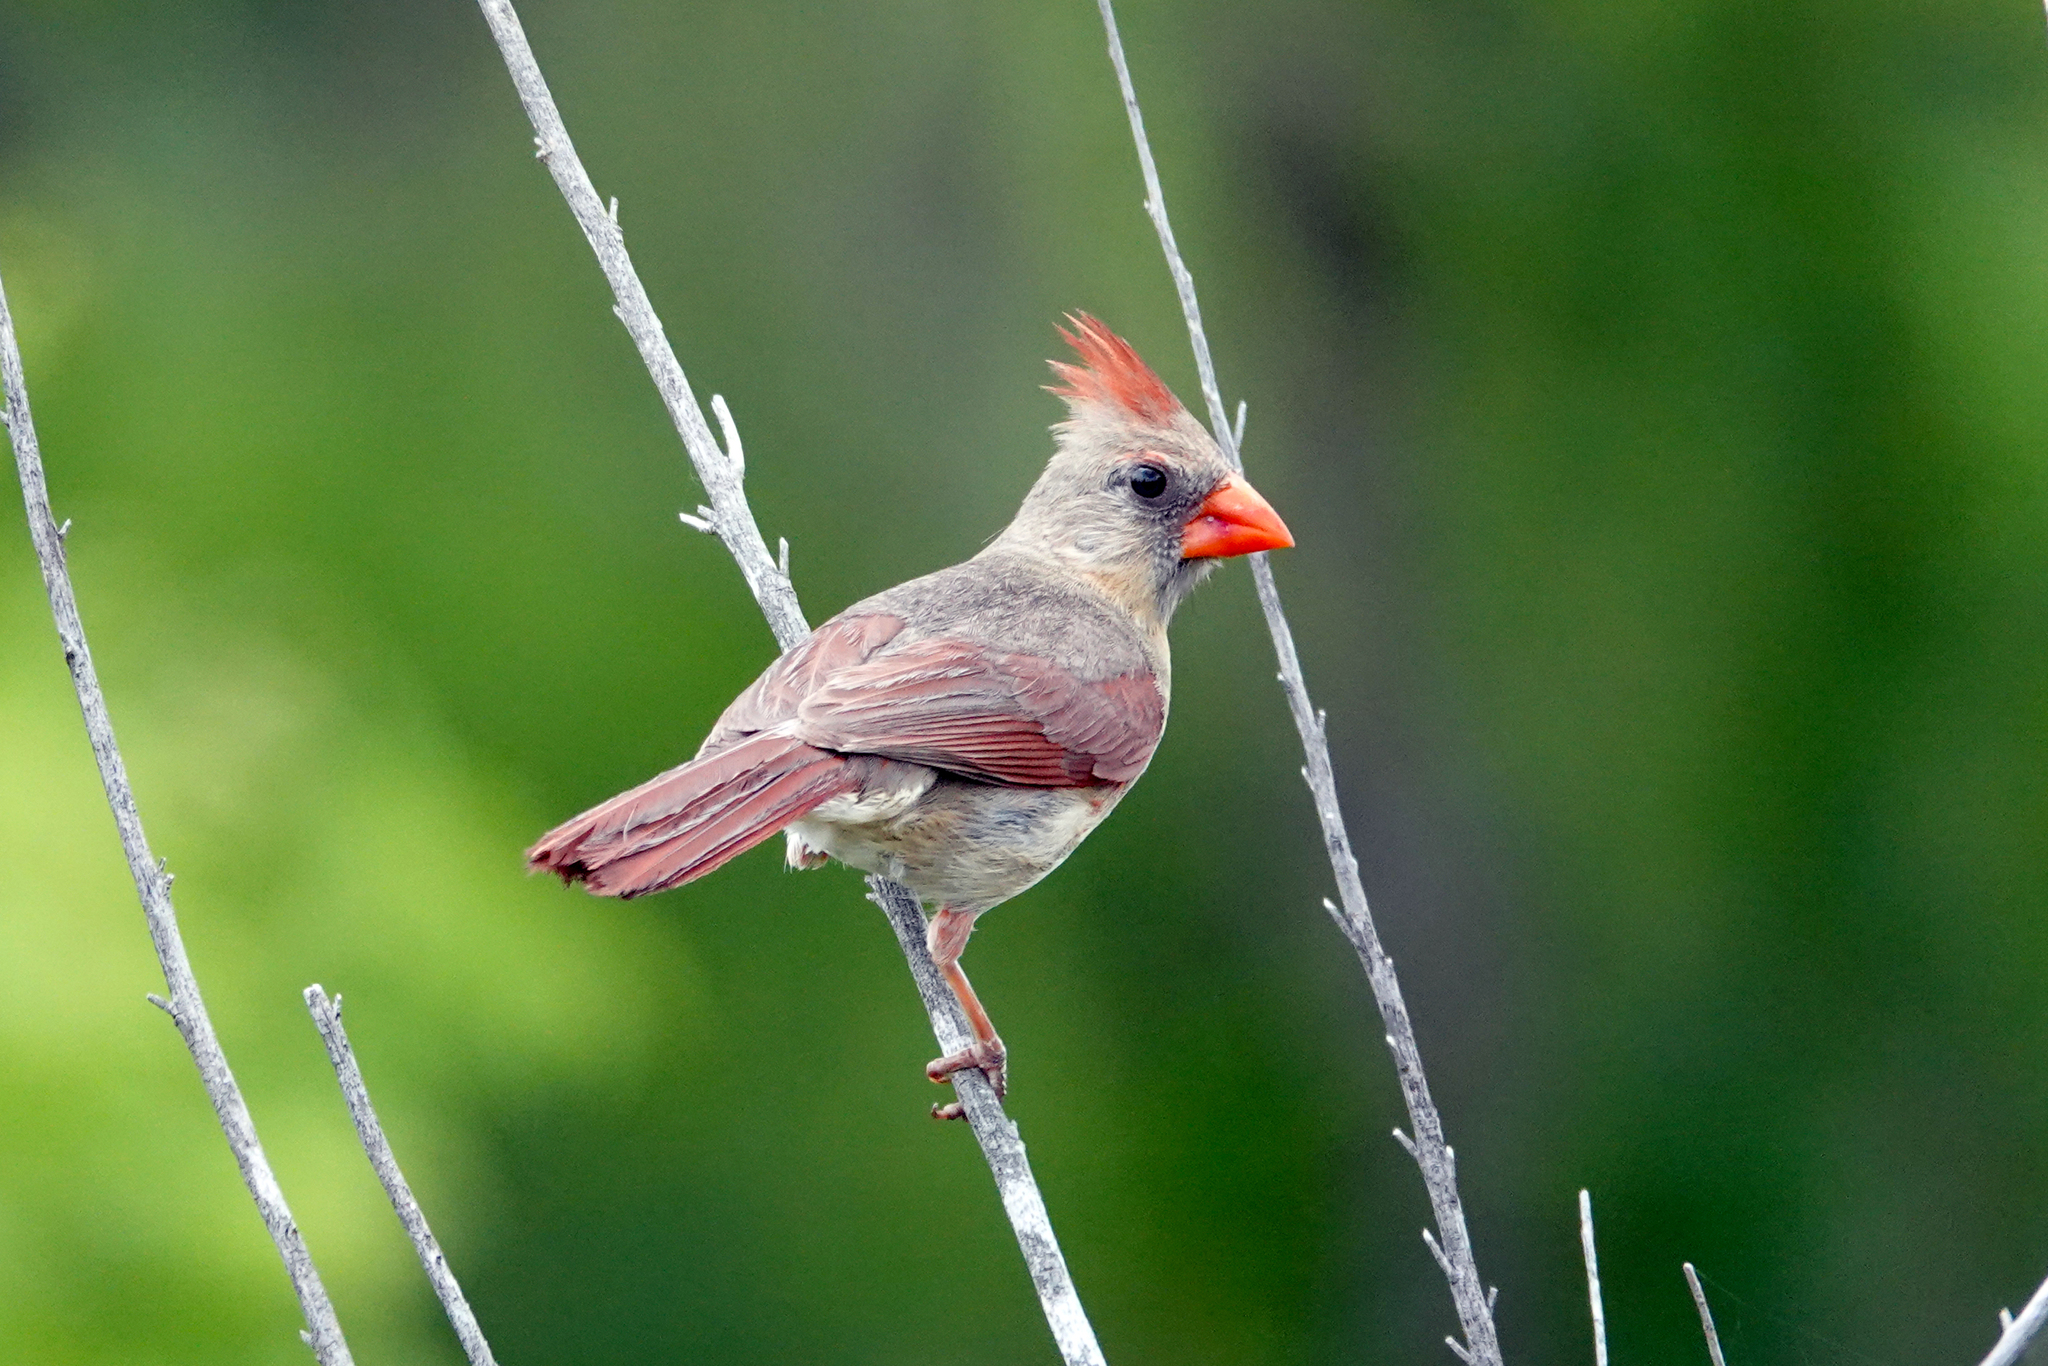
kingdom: Animalia
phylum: Chordata
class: Aves
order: Passeriformes
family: Cardinalidae
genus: Cardinalis
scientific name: Cardinalis cardinalis
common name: Northern cardinal
